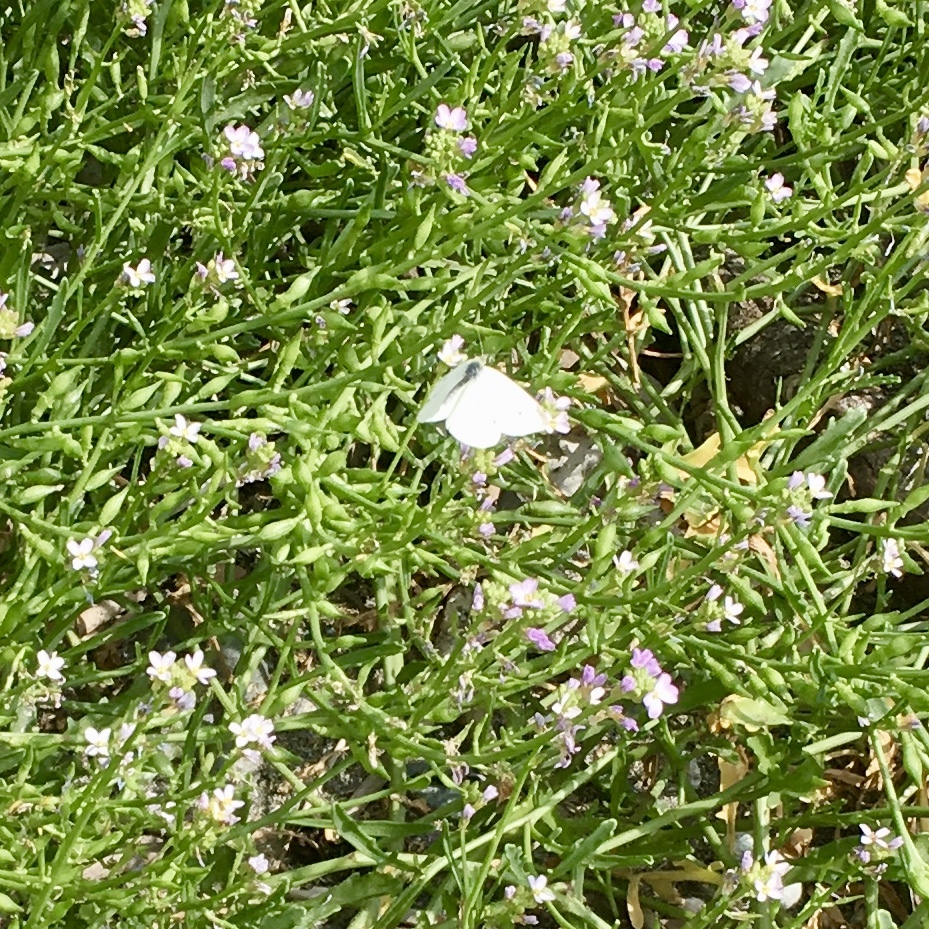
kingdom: Animalia
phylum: Arthropoda
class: Insecta
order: Lepidoptera
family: Pieridae
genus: Pieris
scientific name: Pieris rapae
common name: Small white
